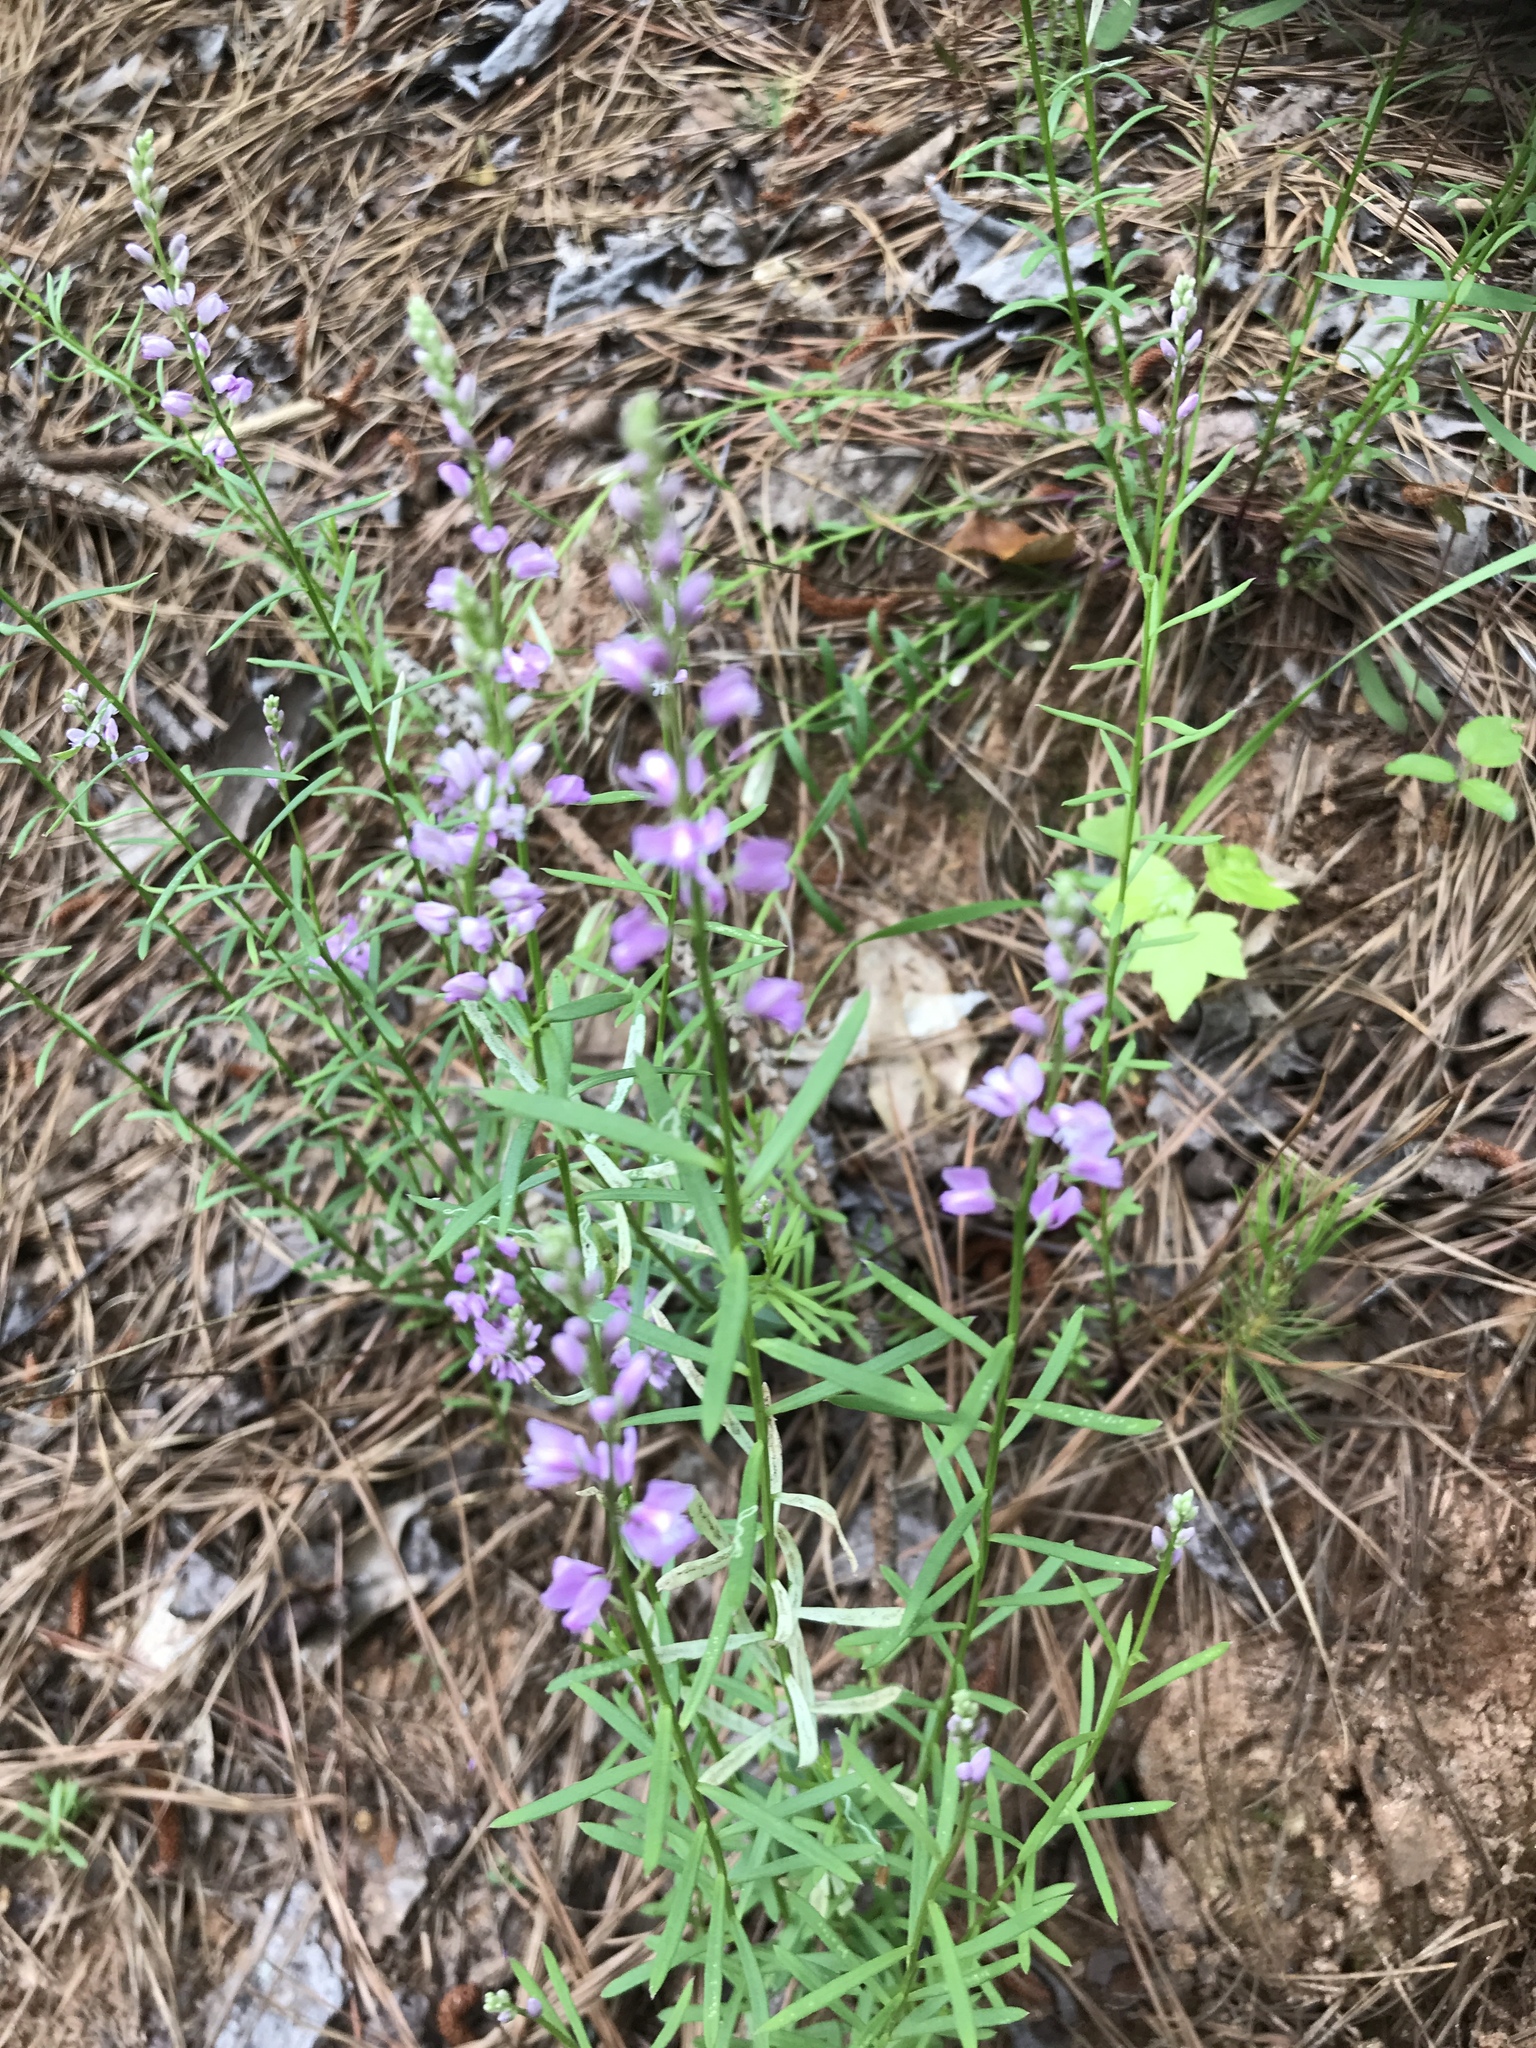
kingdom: Plantae
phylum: Tracheophyta
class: Magnoliopsida
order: Fabales
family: Polygalaceae
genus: Polygala
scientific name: Polygala polygama
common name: Bitter milkwort
